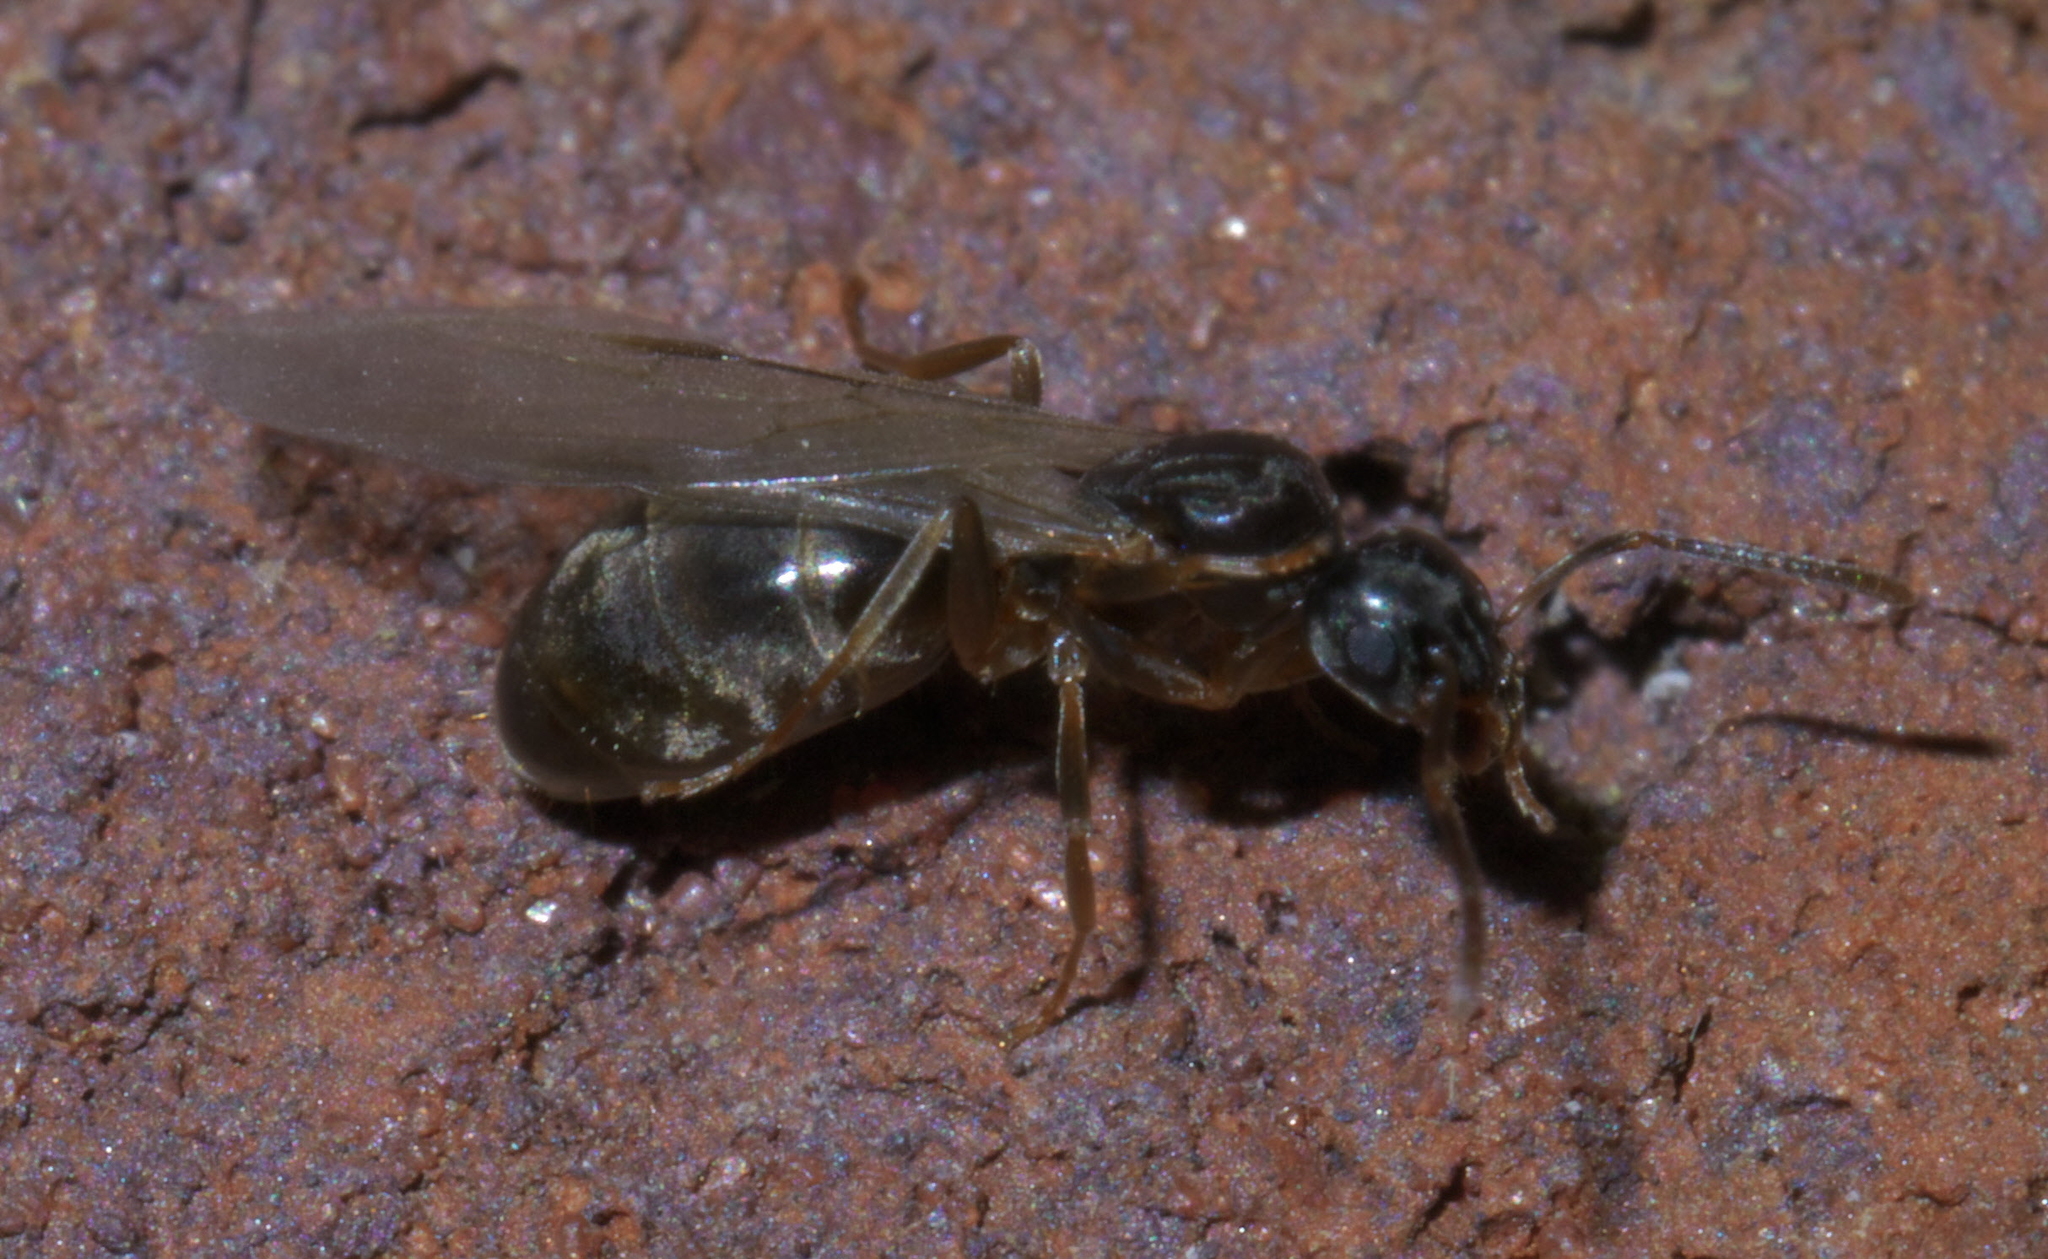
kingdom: Animalia
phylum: Arthropoda
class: Insecta
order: Hymenoptera
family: Formicidae
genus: Tapinoma
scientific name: Tapinoma sessile
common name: Odorous house ant
